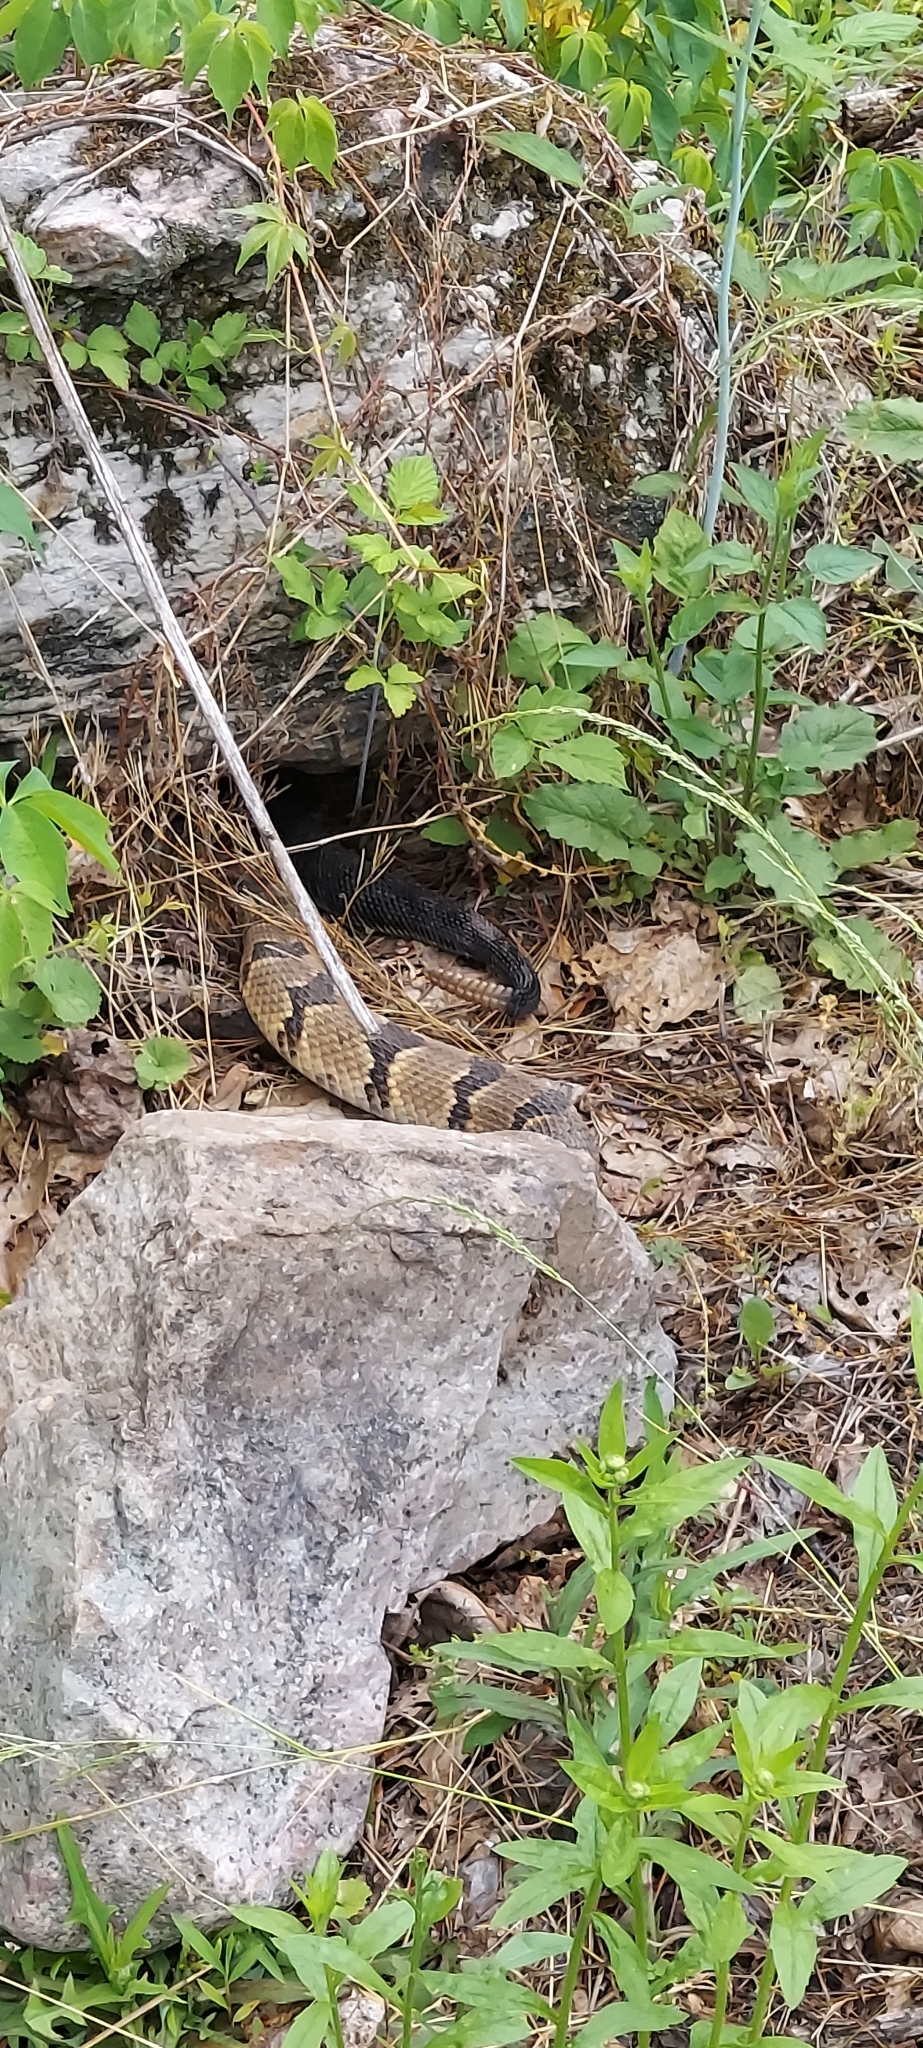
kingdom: Animalia
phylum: Chordata
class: Squamata
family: Viperidae
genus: Crotalus
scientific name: Crotalus horridus
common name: Timber rattlesnake
